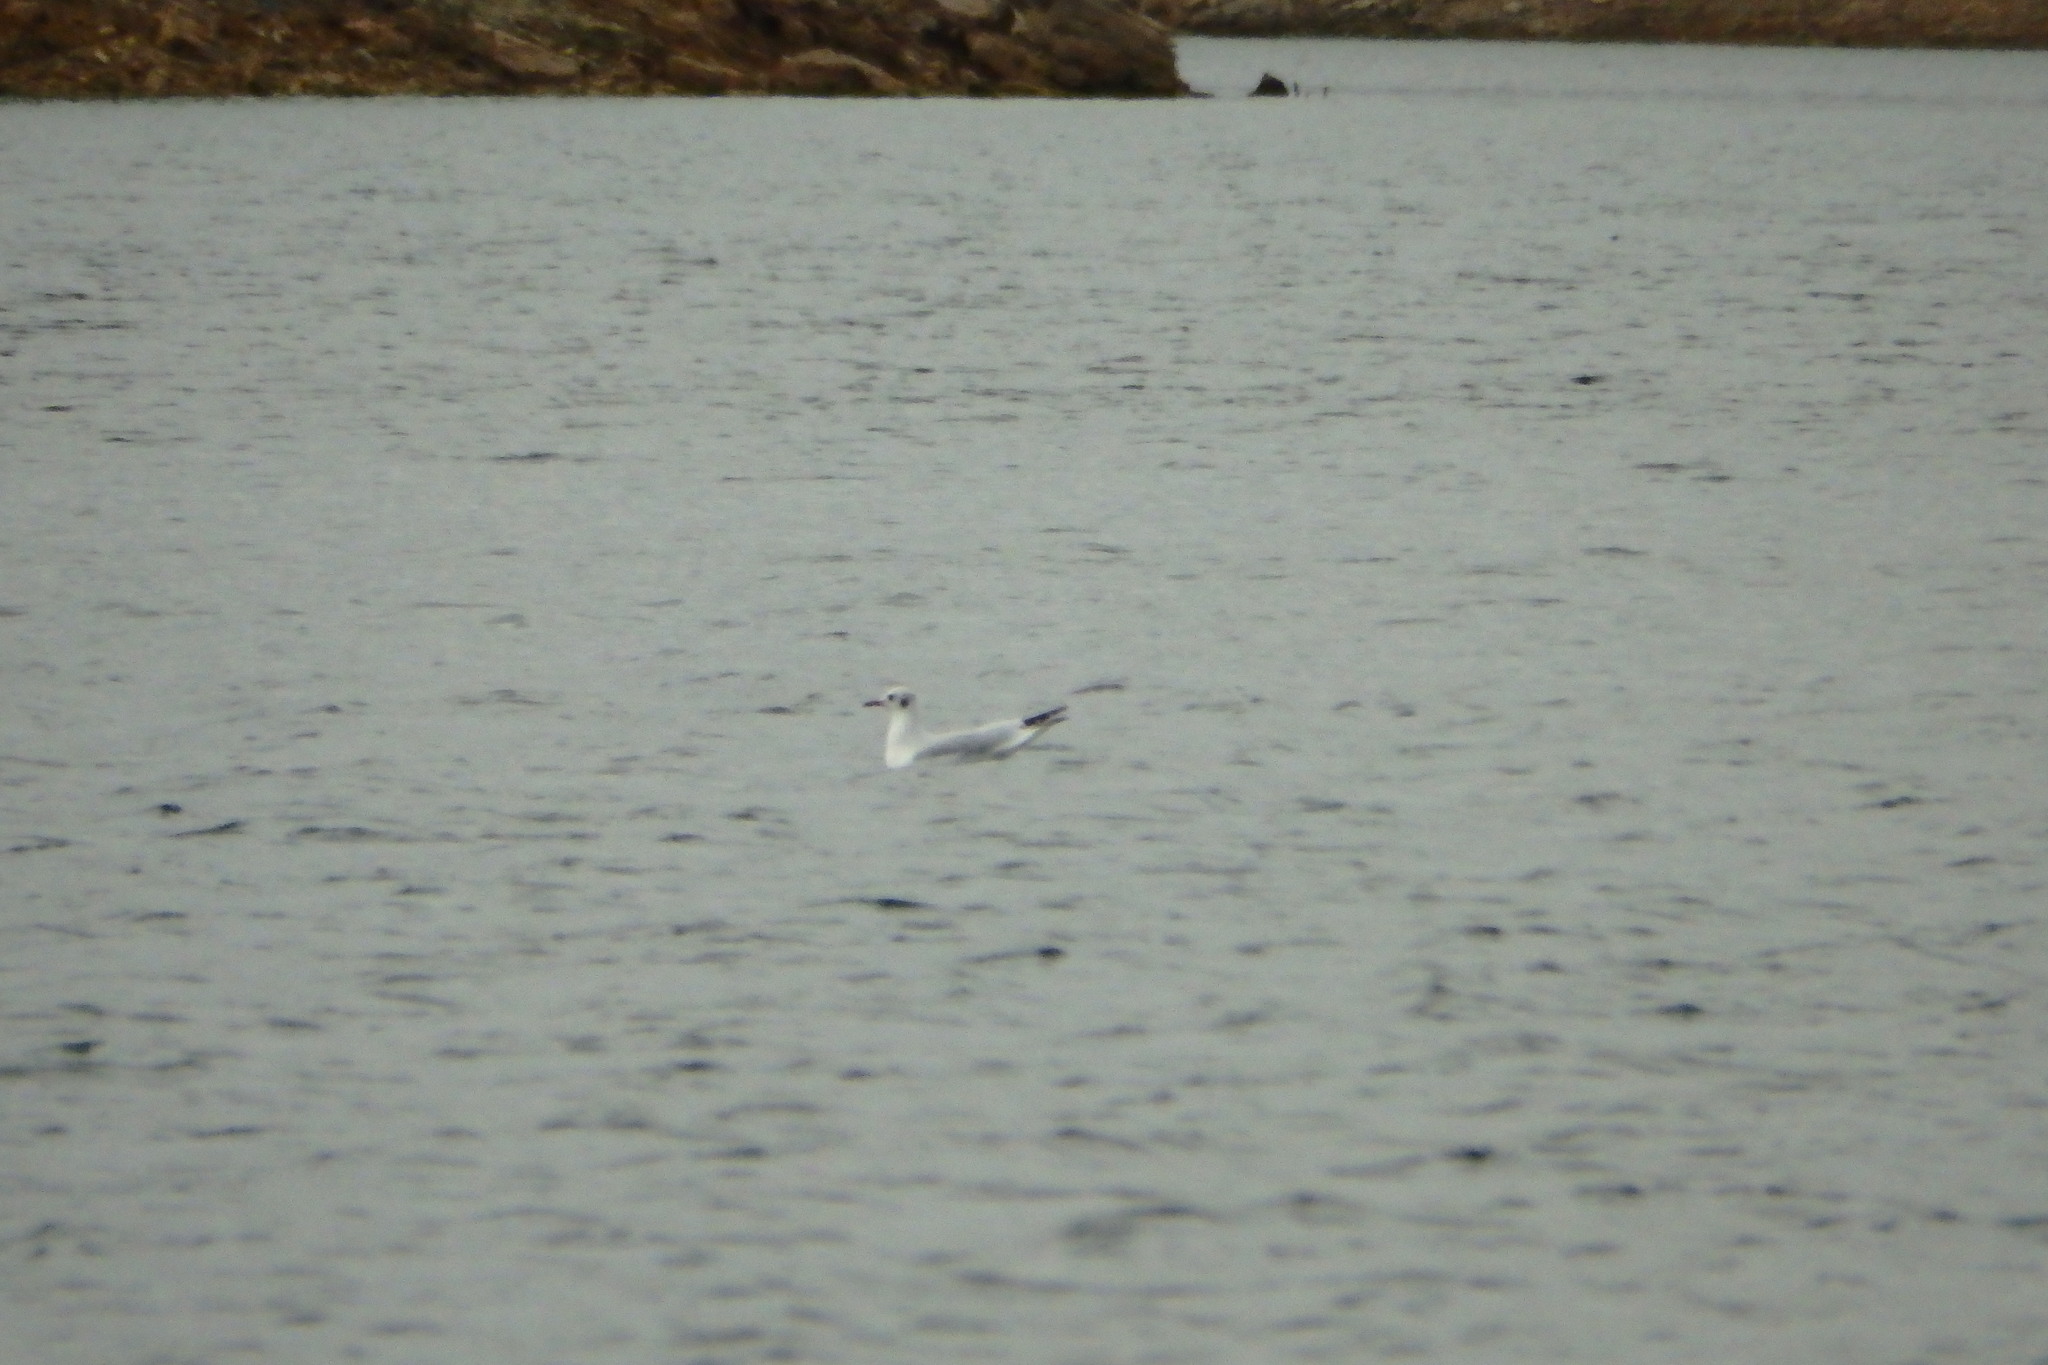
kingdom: Animalia
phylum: Chordata
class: Aves
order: Charadriiformes
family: Laridae
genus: Chroicocephalus
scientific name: Chroicocephalus ridibundus
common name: Black-headed gull
